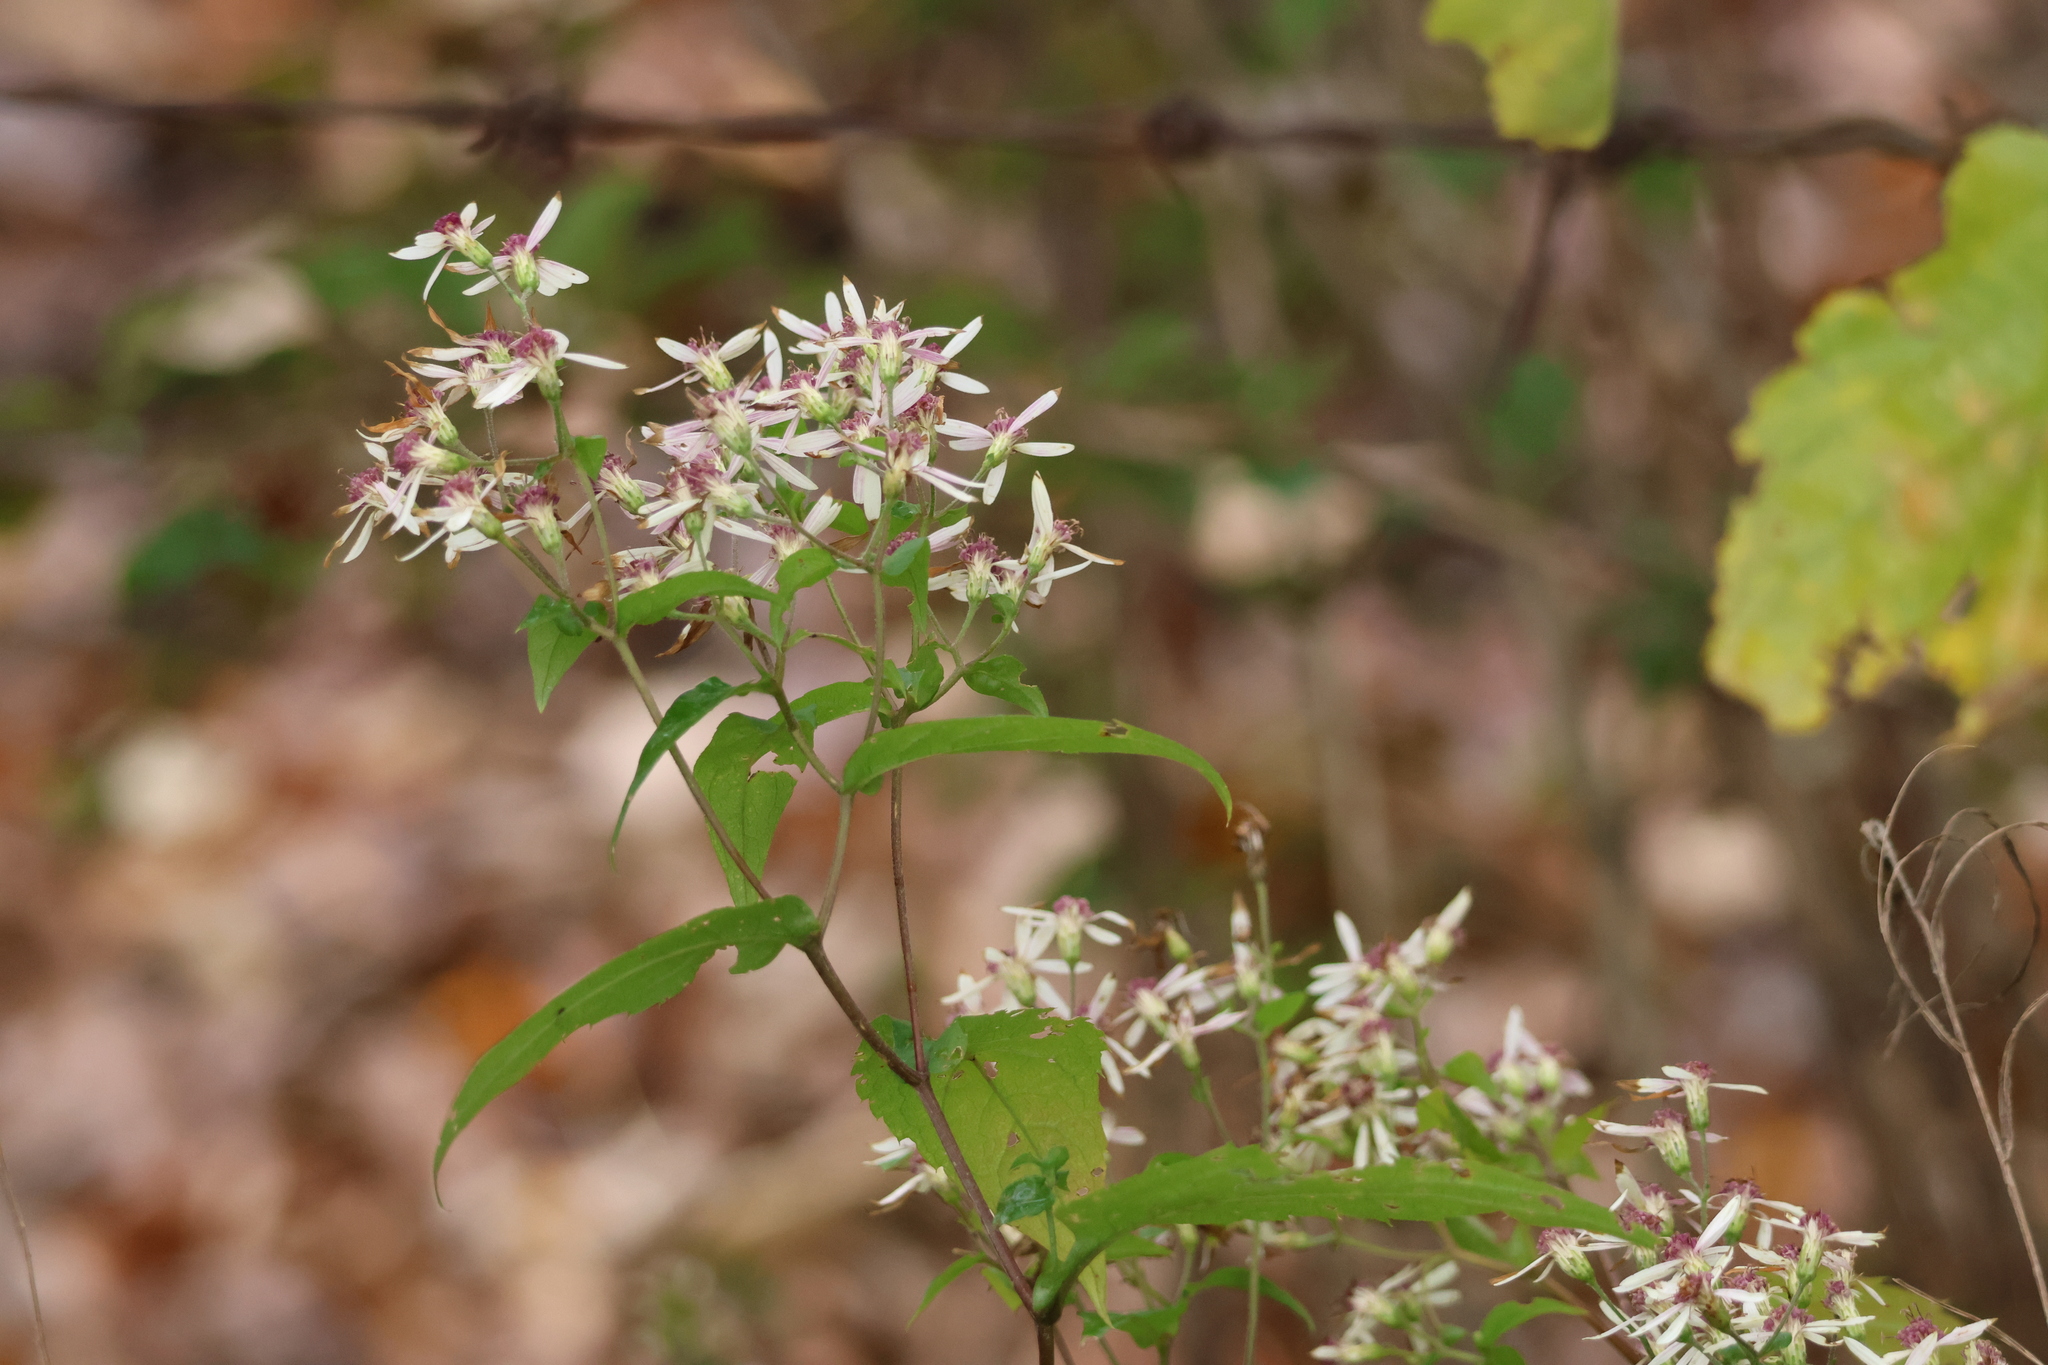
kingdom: Plantae
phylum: Tracheophyta
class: Magnoliopsida
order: Asterales
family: Asteraceae
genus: Eurybia
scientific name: Eurybia divaricata
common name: White wood aster
